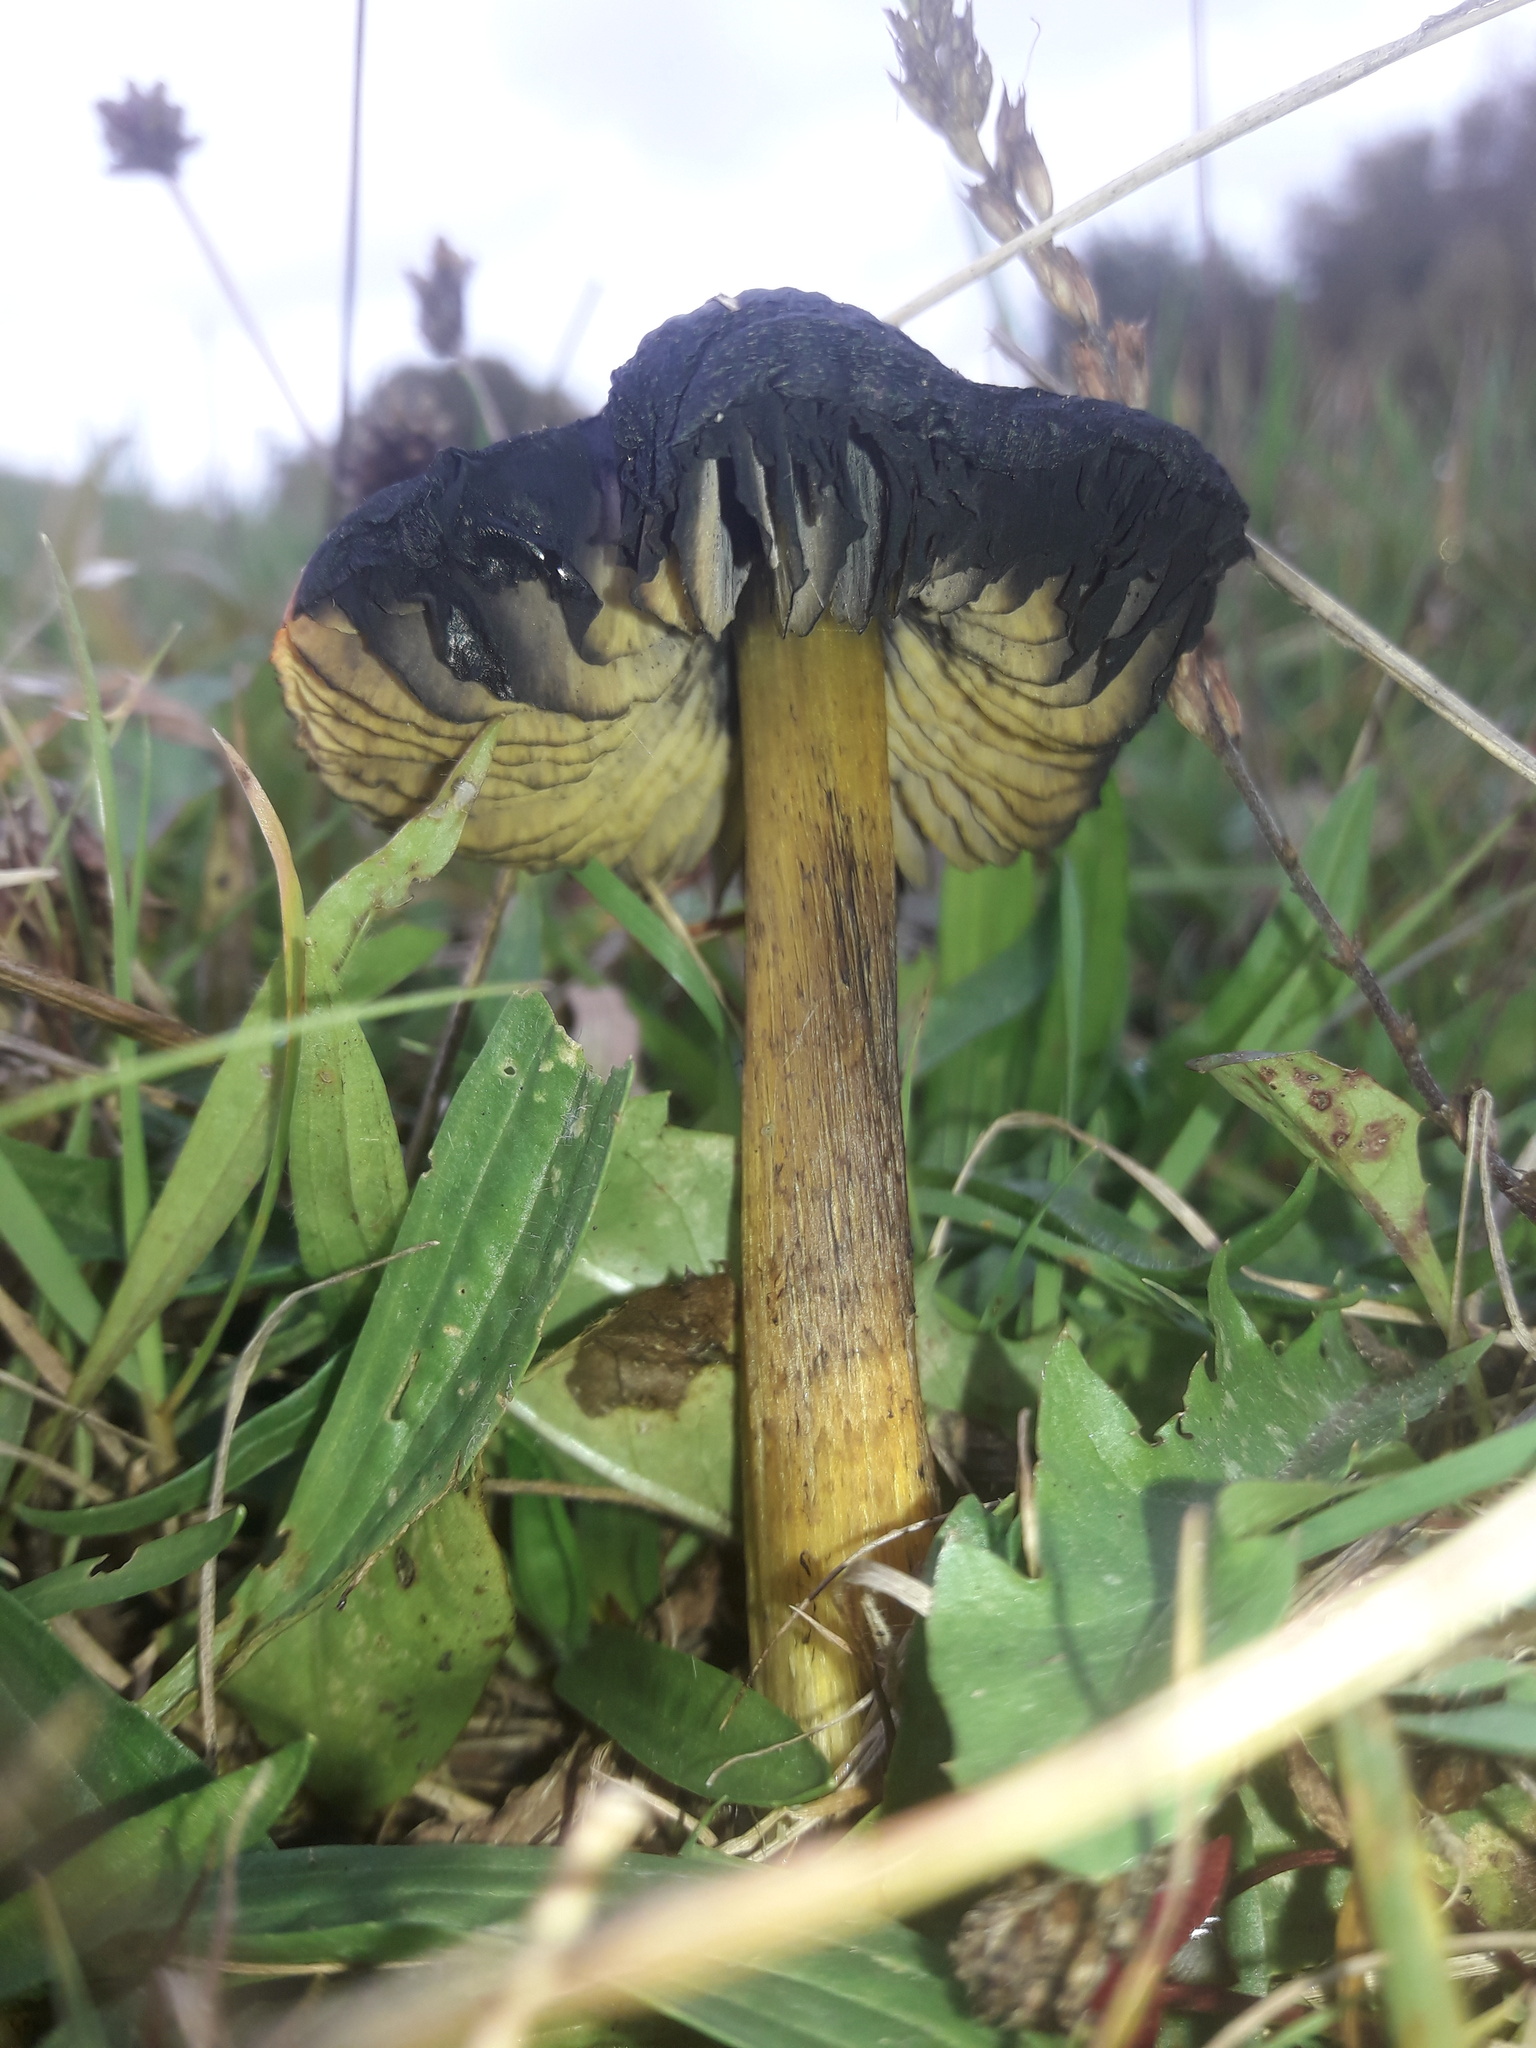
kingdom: Fungi
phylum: Basidiomycota
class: Agaricomycetes
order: Agaricales
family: Hygrophoraceae
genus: Hygrocybe
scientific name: Hygrocybe conica
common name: Blackening wax-cap
